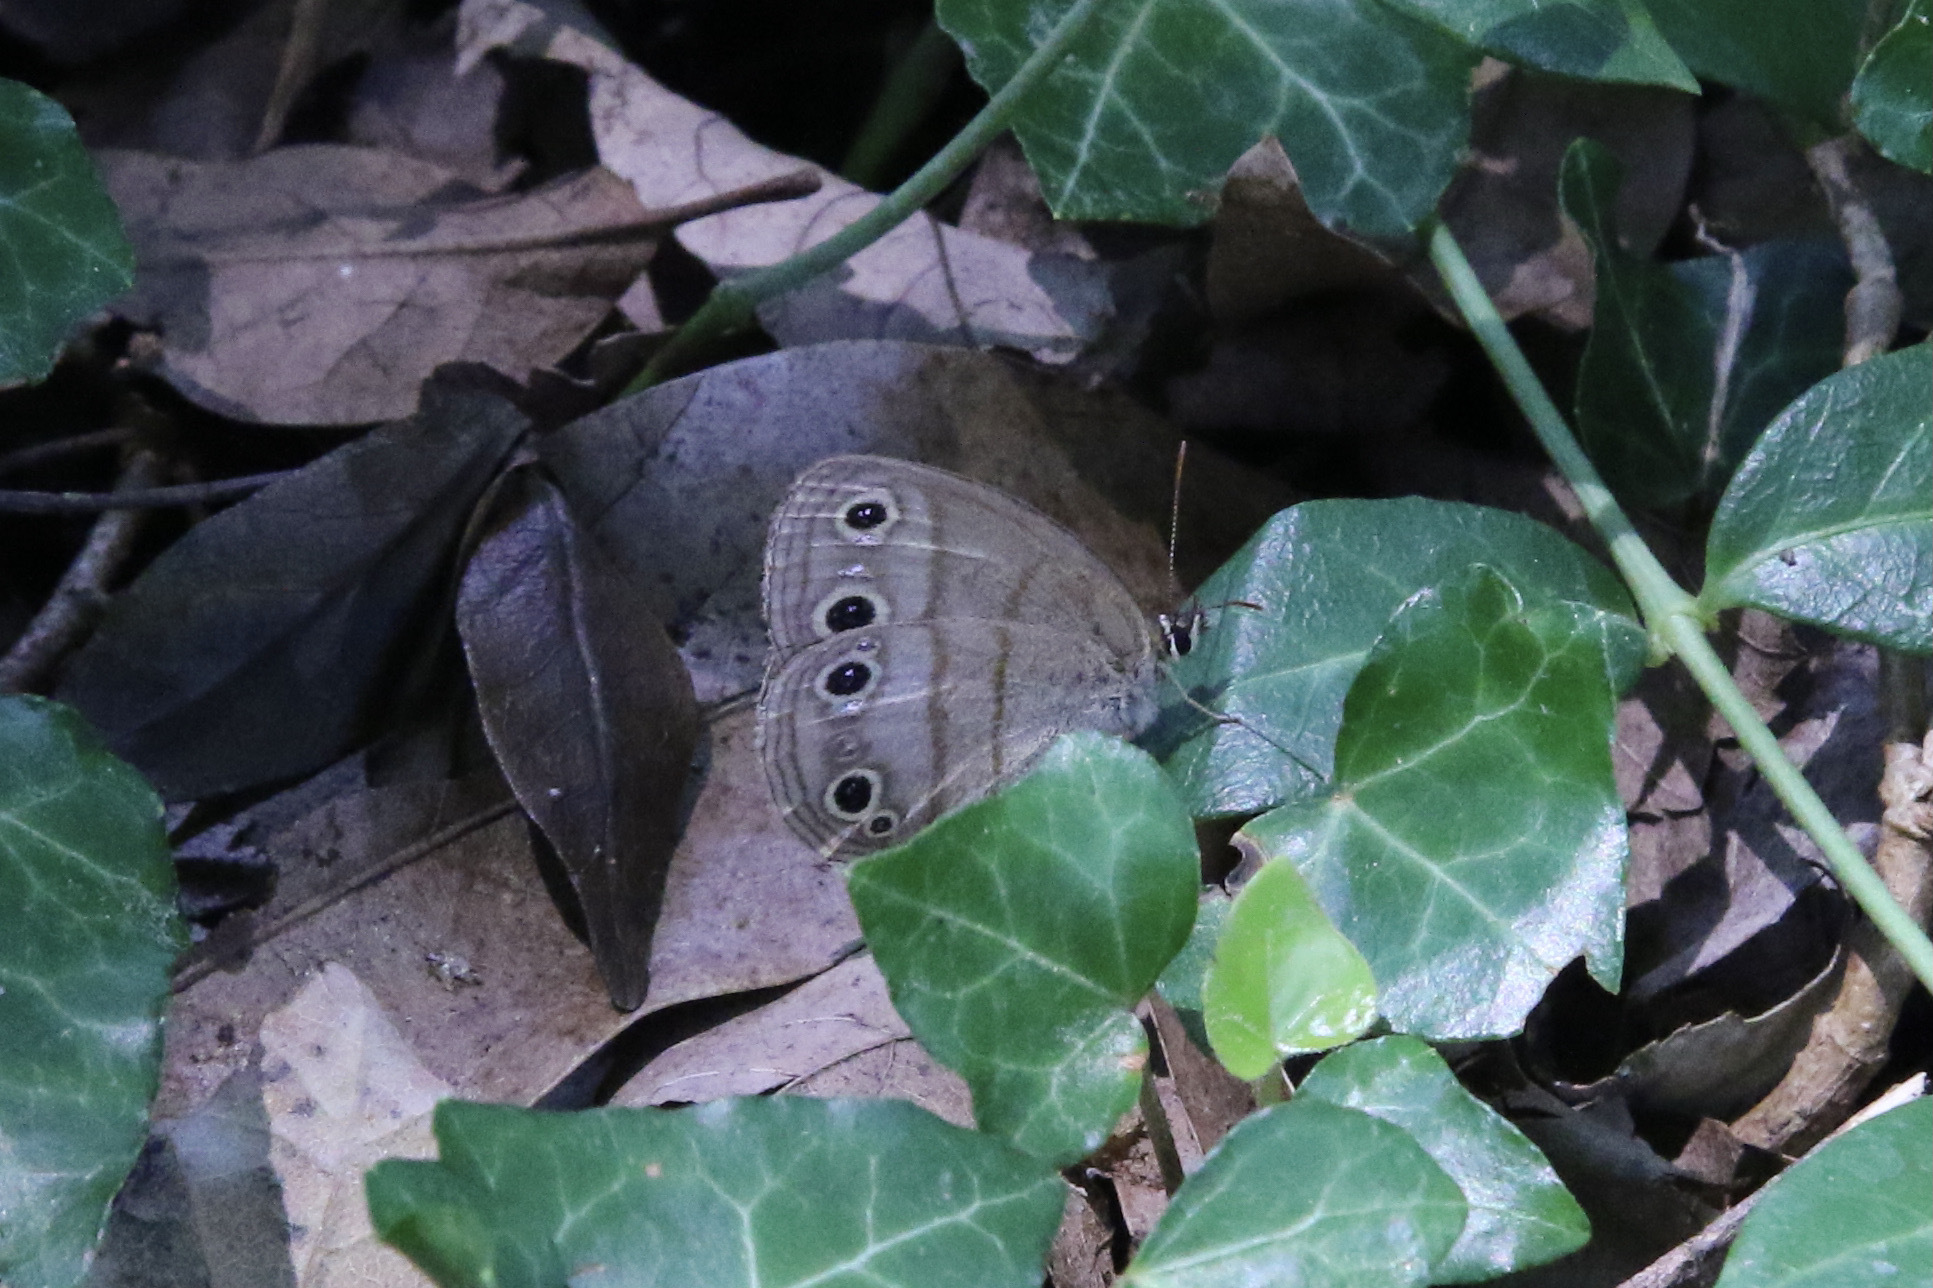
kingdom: Animalia
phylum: Arthropoda
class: Insecta
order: Lepidoptera
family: Nymphalidae
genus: Euptychia
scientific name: Euptychia cymela
